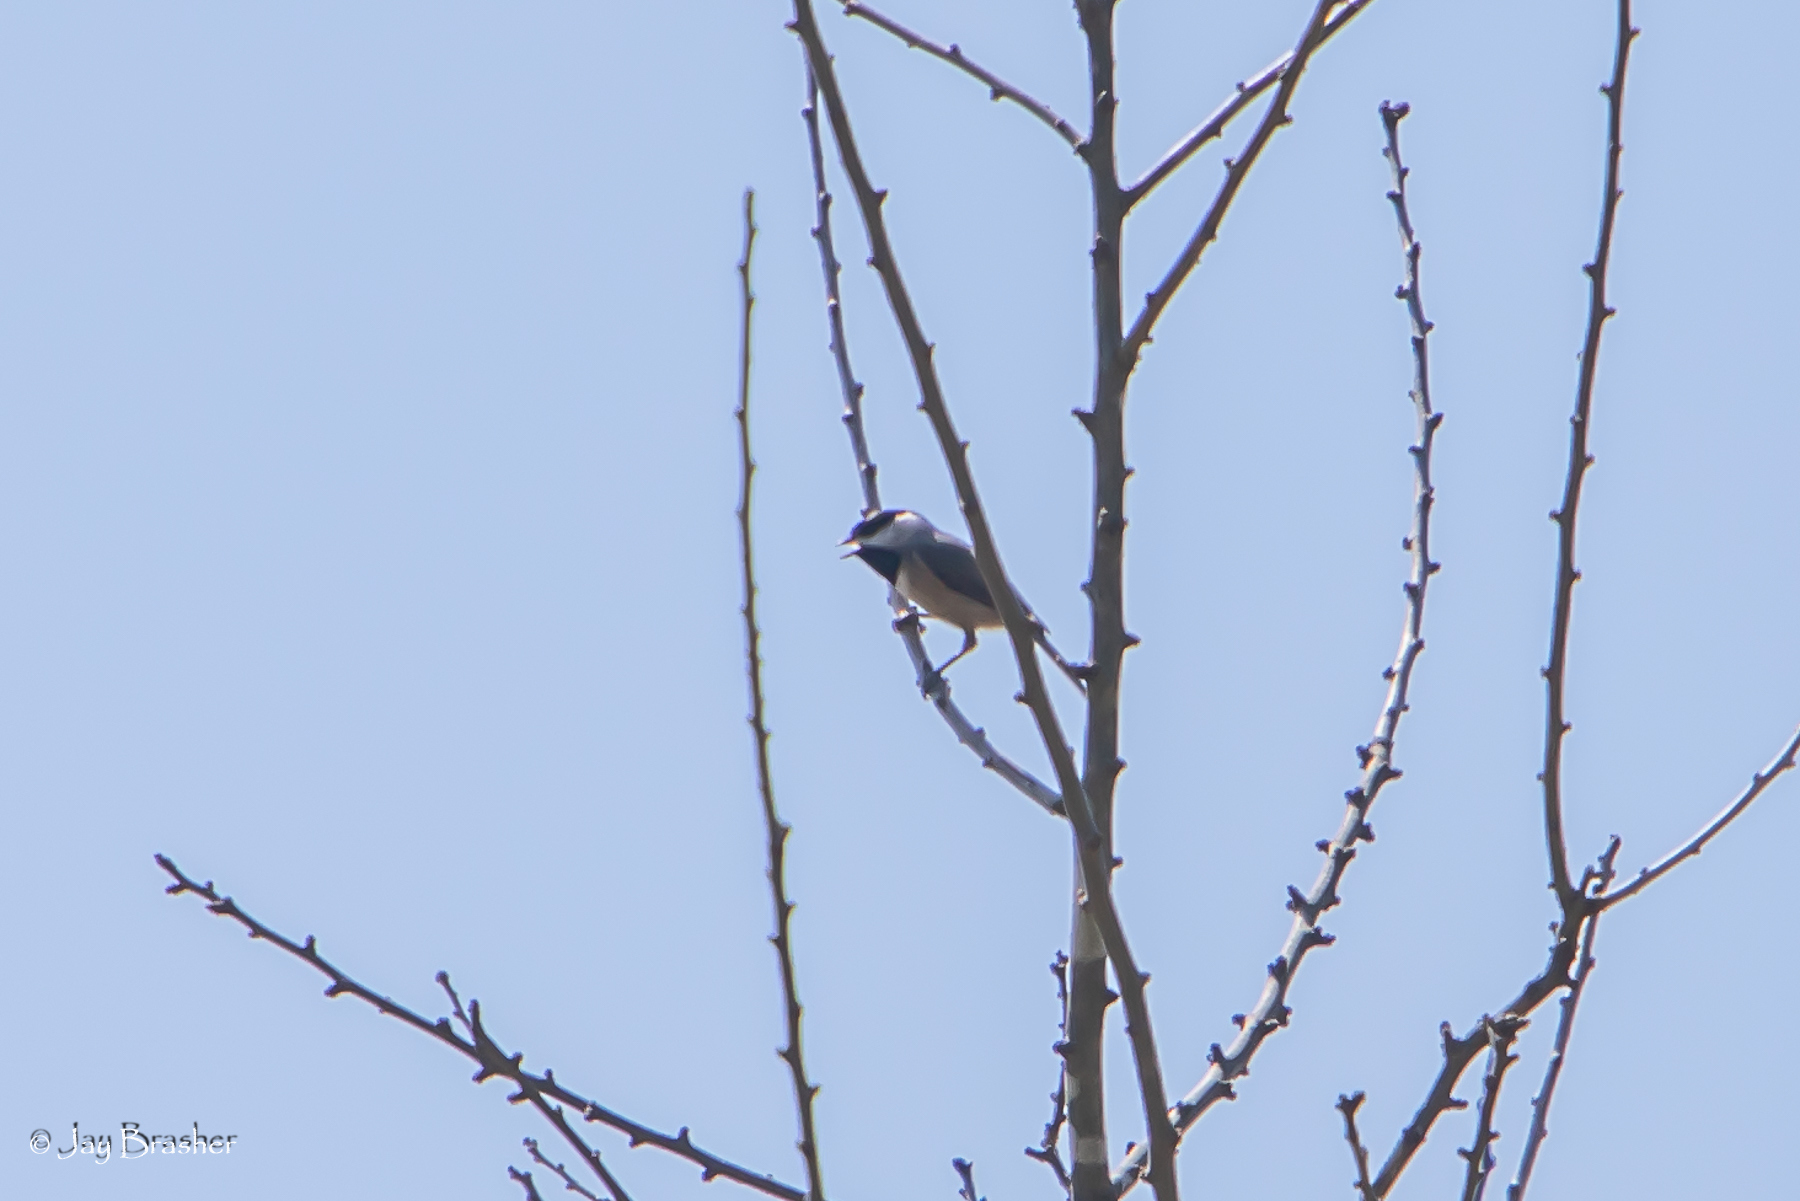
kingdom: Animalia
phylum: Chordata
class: Aves
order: Passeriformes
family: Paridae
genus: Poecile
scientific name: Poecile carolinensis
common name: Carolina chickadee
